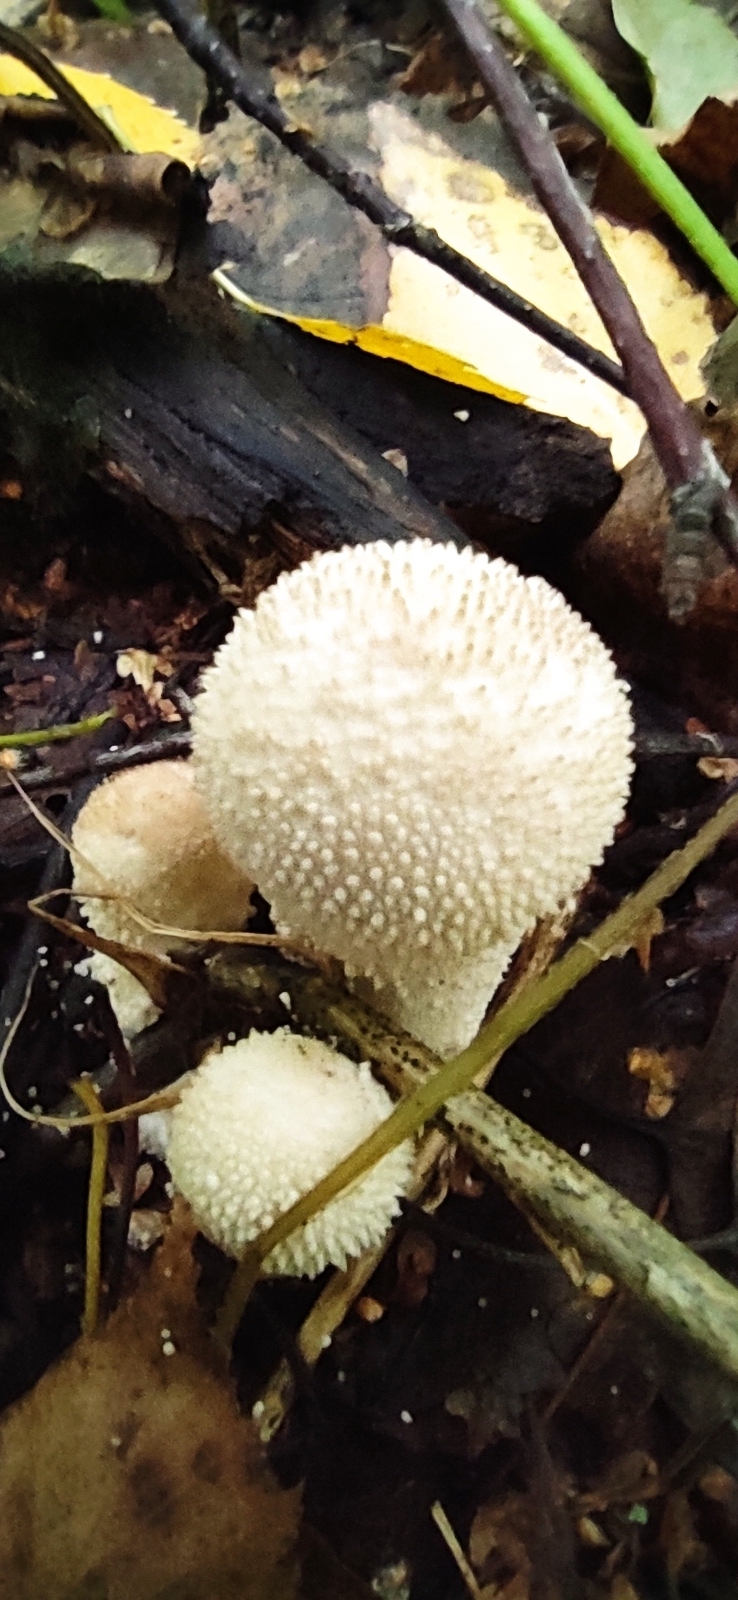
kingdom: Fungi
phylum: Basidiomycota
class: Agaricomycetes
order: Agaricales
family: Lycoperdaceae
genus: Lycoperdon
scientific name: Lycoperdon perlatum
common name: Common puffball
